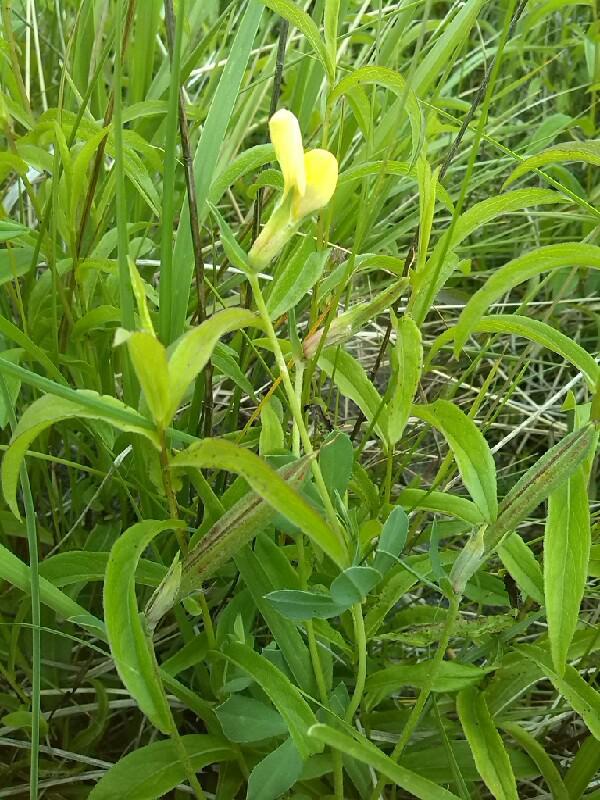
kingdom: Plantae
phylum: Tracheophyta
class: Magnoliopsida
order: Fabales
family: Fabaceae
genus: Lotus
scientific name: Lotus maritimus
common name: Dragon's-teeth
